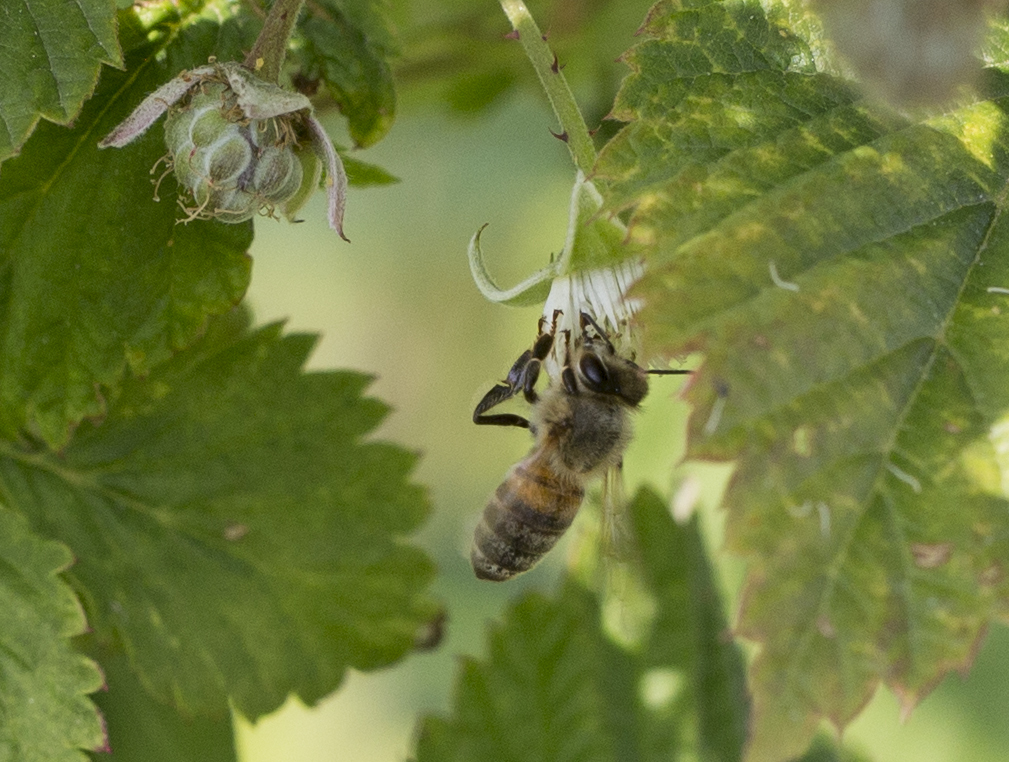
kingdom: Animalia
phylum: Arthropoda
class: Insecta
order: Hymenoptera
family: Apidae
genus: Apis
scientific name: Apis mellifera
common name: Honey bee
